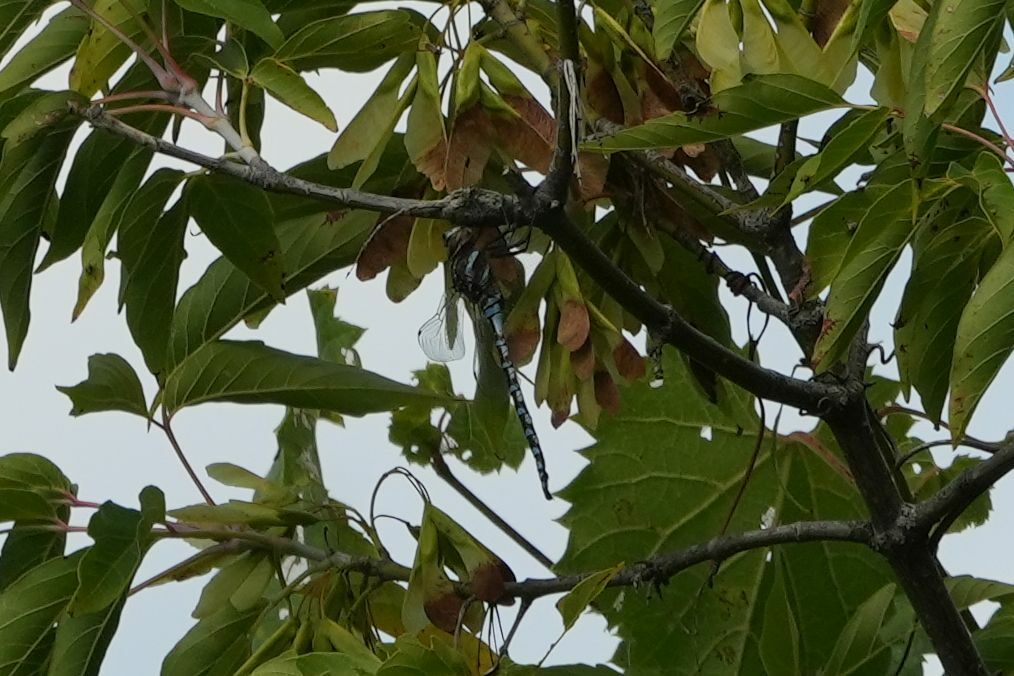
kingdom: Animalia
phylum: Arthropoda
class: Insecta
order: Odonata
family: Aeshnidae
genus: Aeshna
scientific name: Aeshna constricta
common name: Lance-tipped darner
